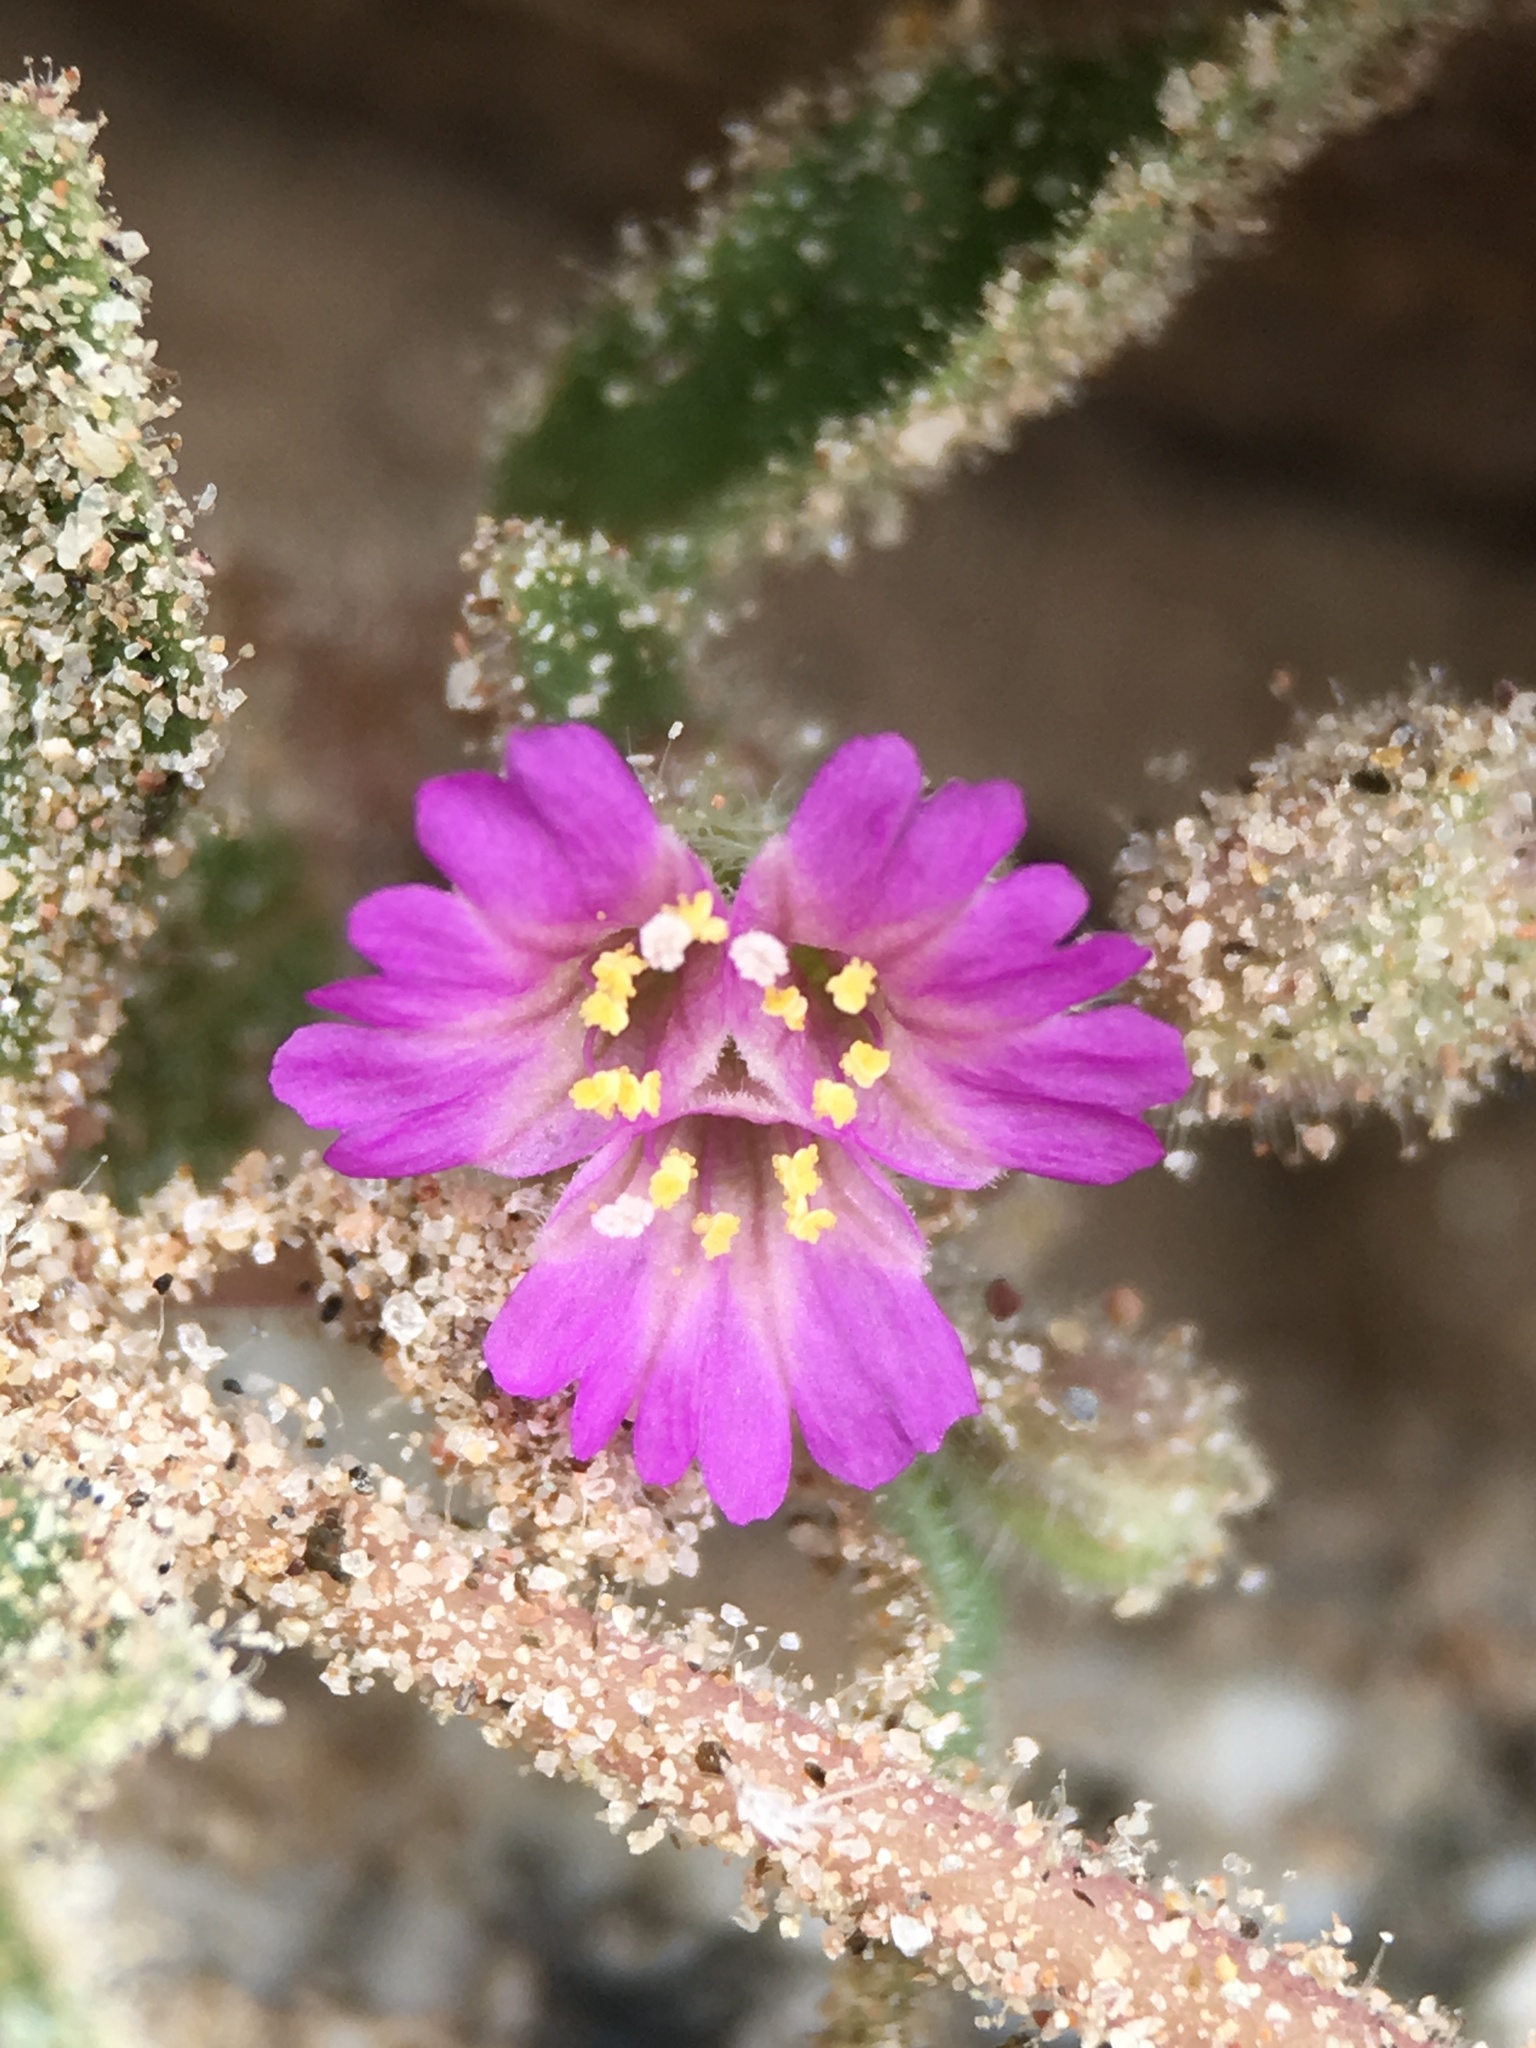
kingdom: Plantae
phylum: Tracheophyta
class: Magnoliopsida
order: Caryophyllales
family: Nyctaginaceae
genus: Allionia
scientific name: Allionia incarnata
